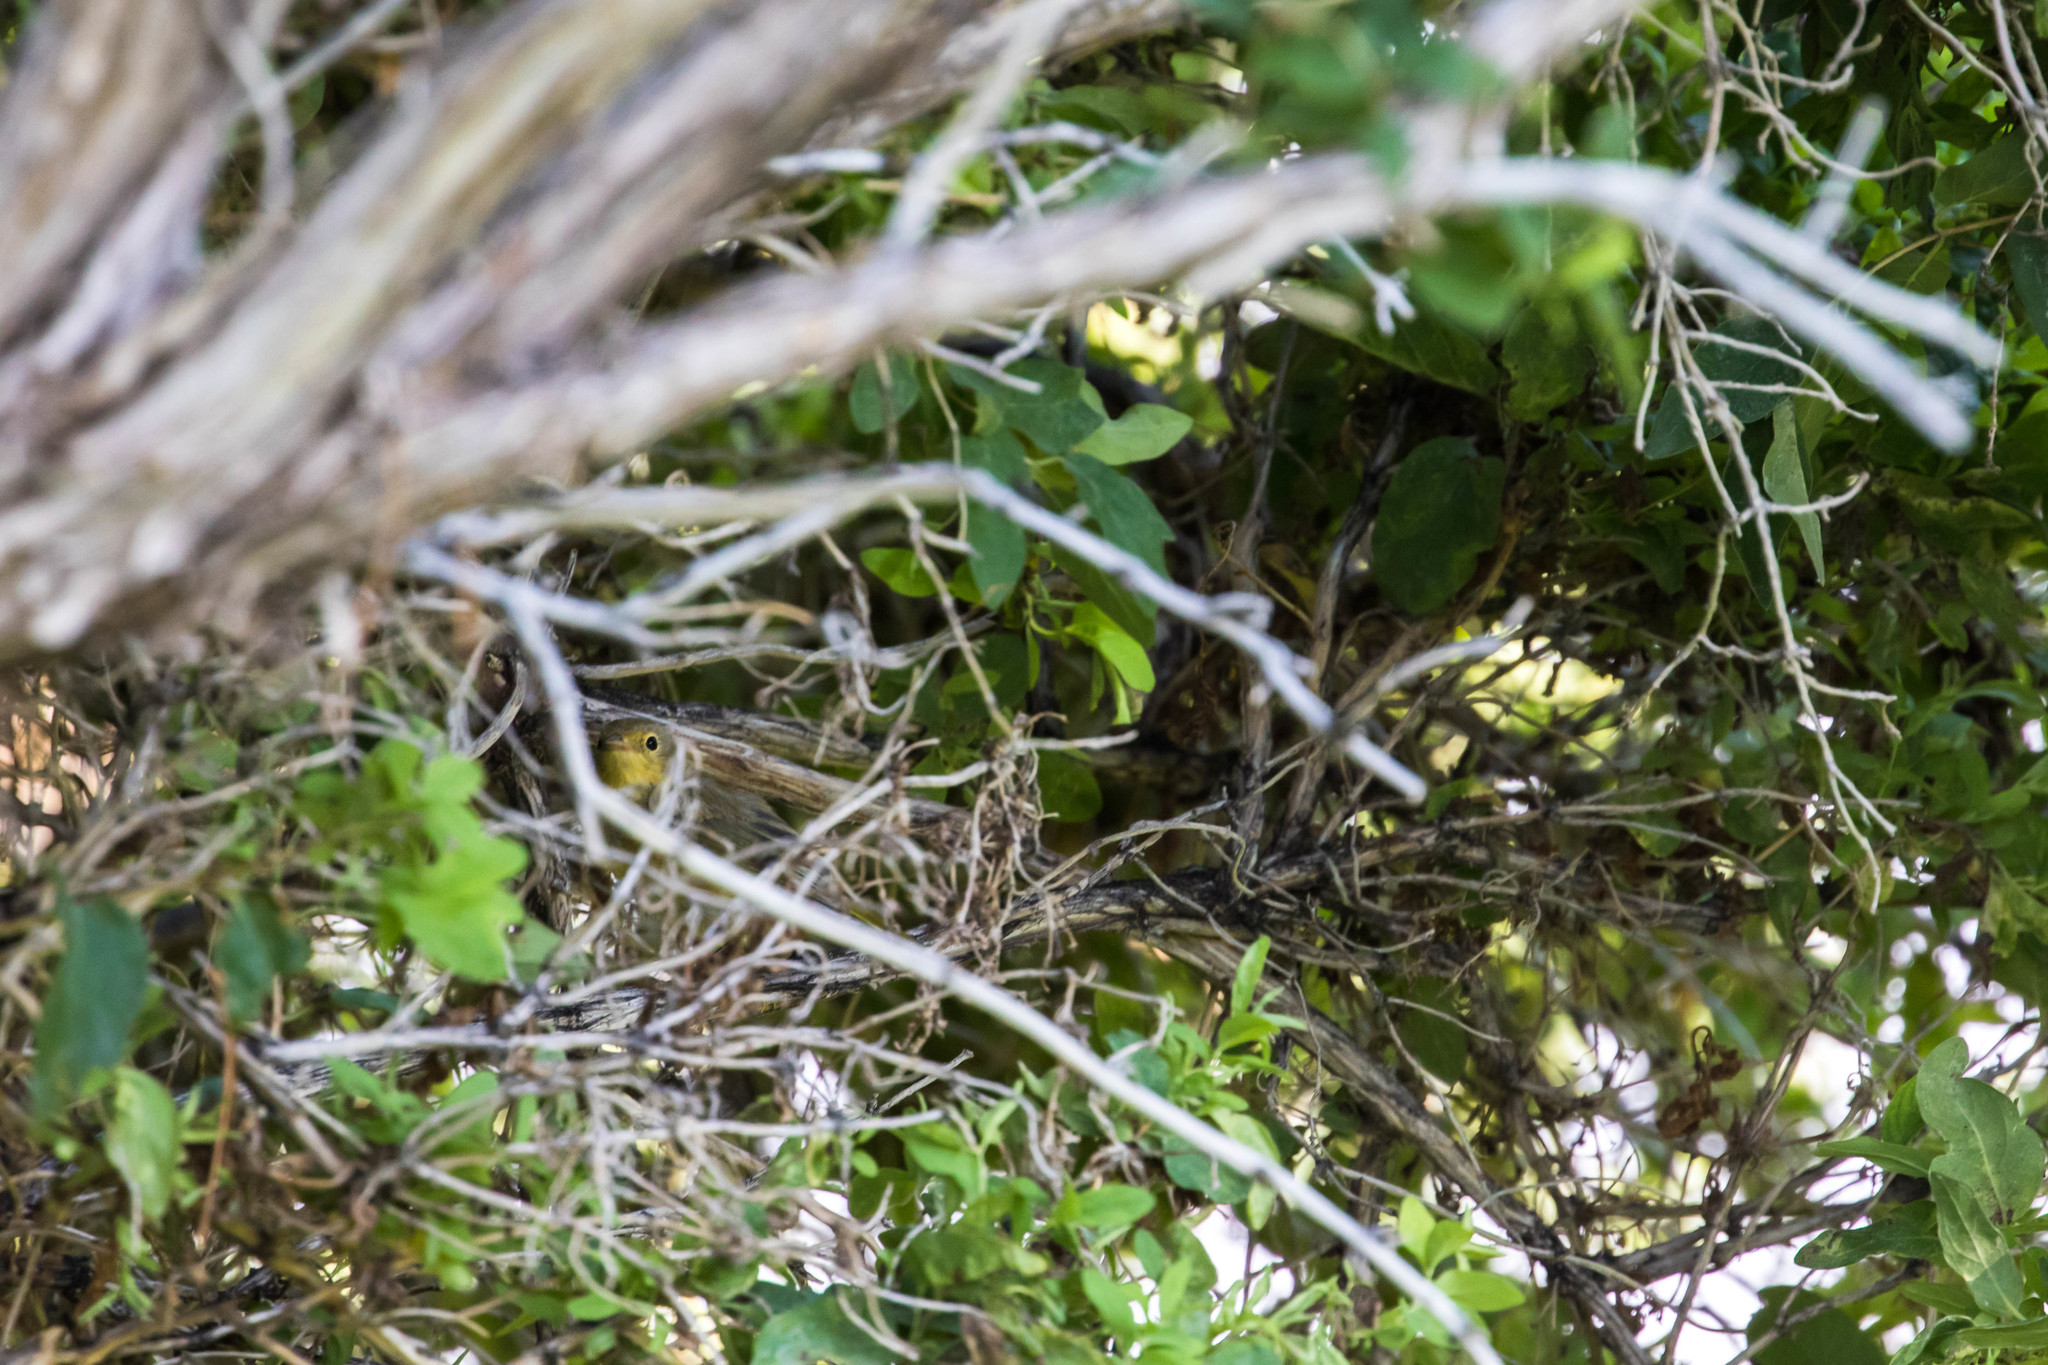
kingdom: Animalia
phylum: Chordata
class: Aves
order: Passeriformes
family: Parulidae
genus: Setophaga
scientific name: Setophaga petechia
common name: Yellow warbler
